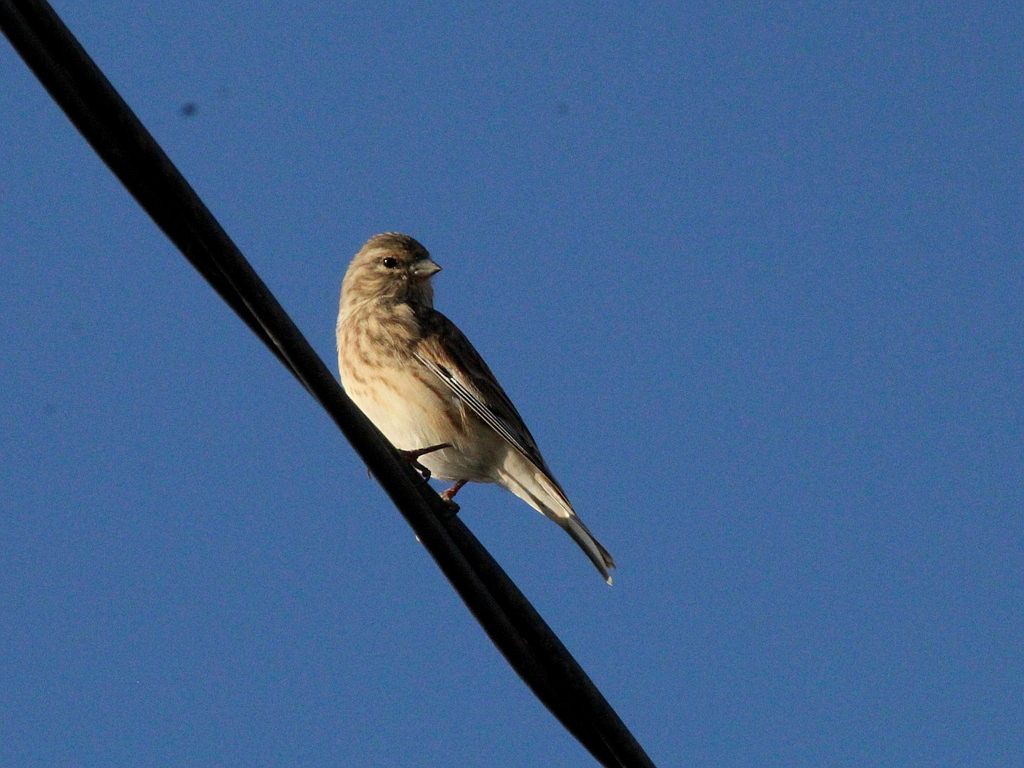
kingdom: Animalia
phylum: Chordata
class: Aves
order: Passeriformes
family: Fringillidae
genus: Linaria
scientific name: Linaria cannabina
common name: Common linnet
